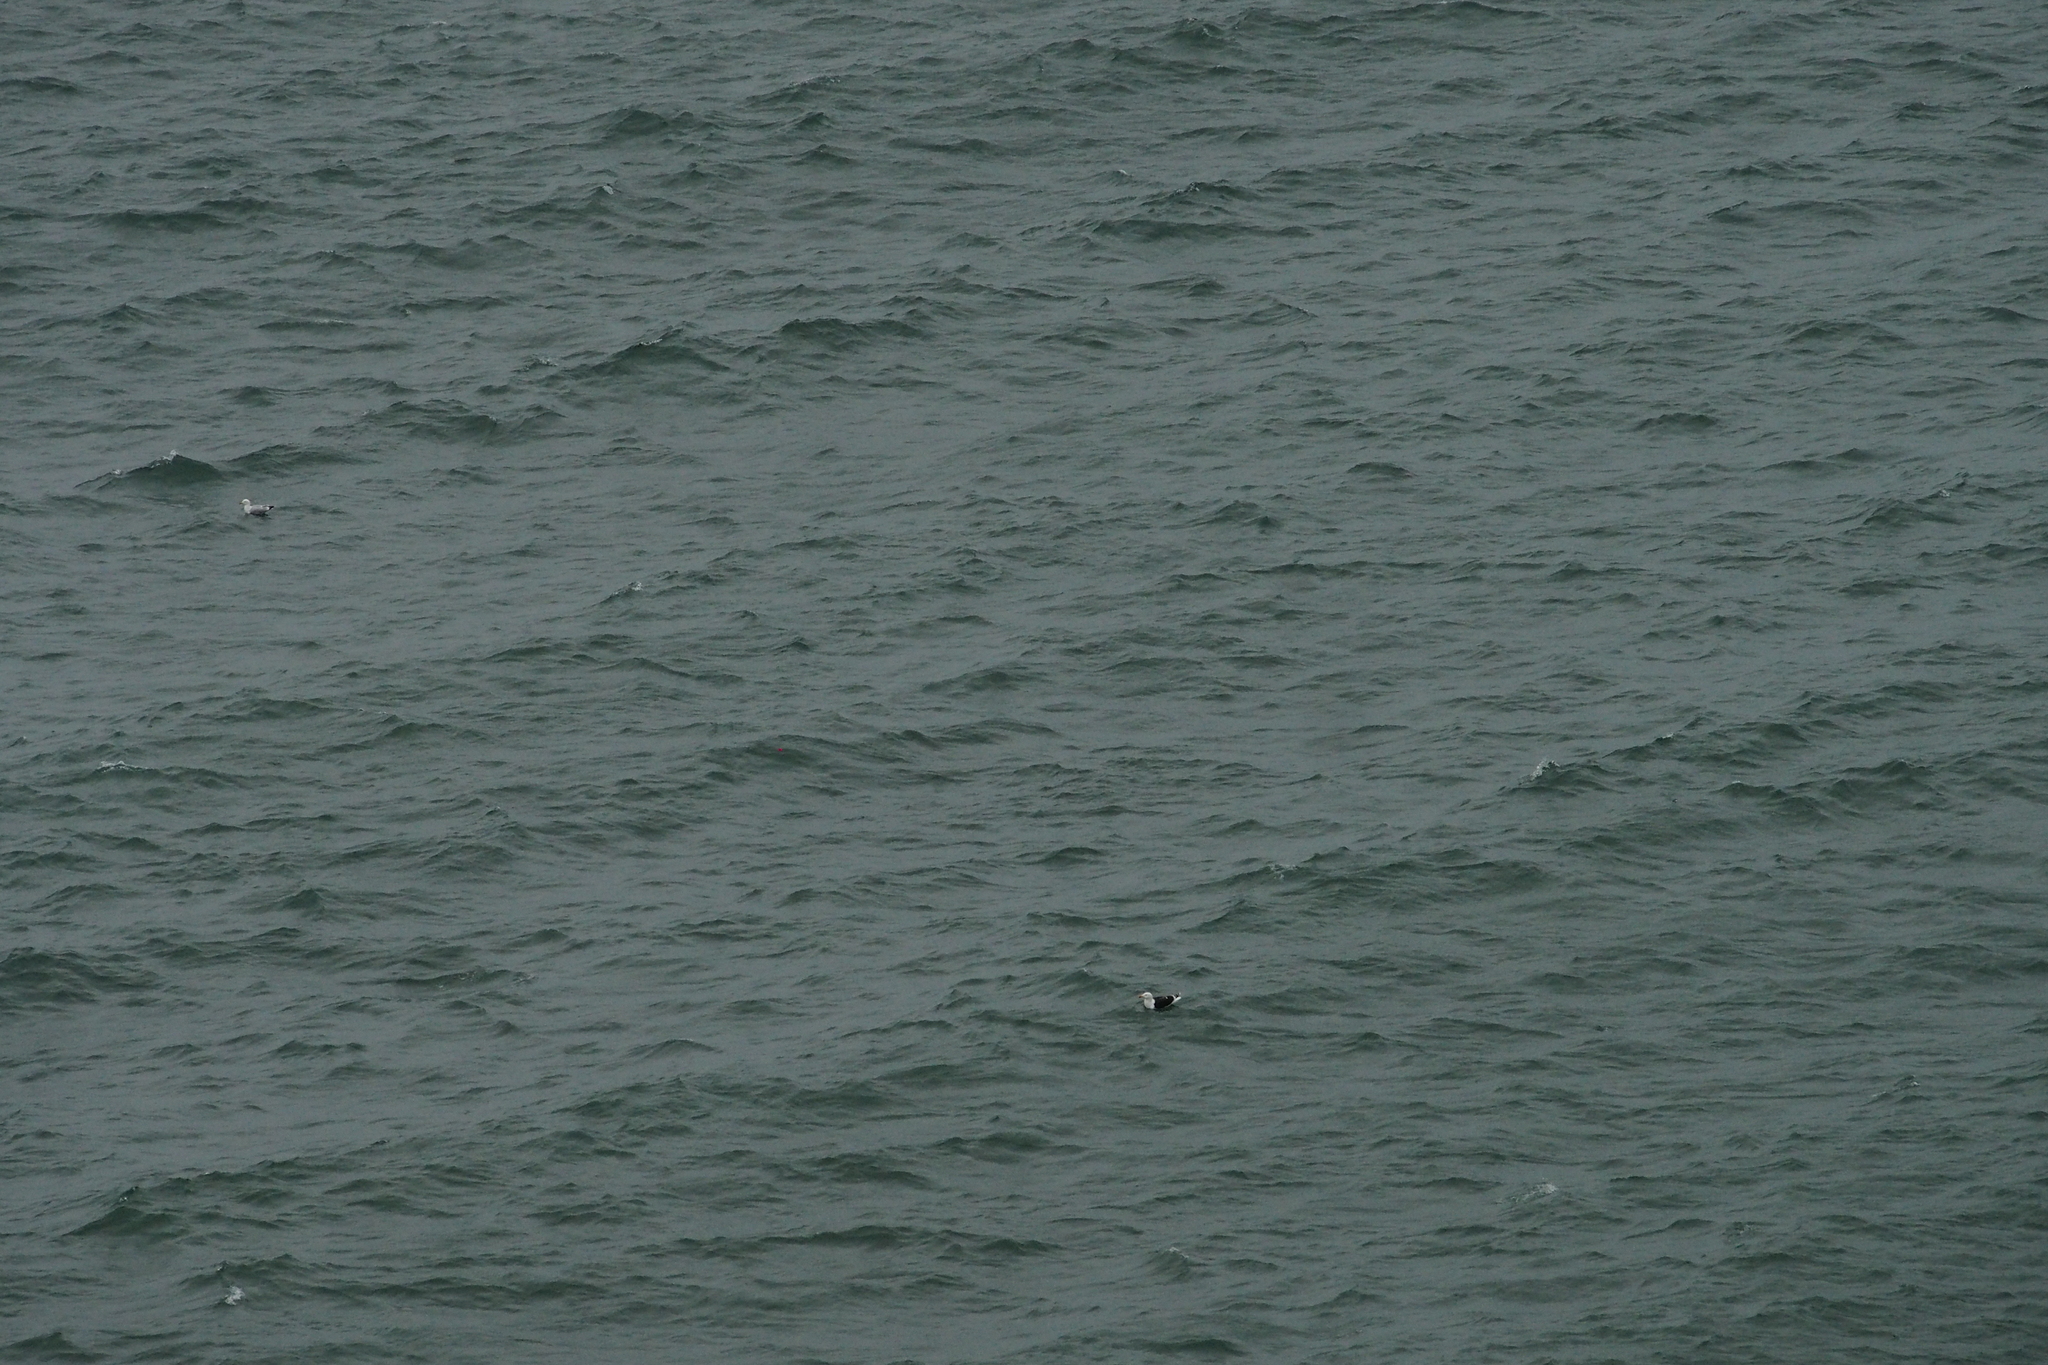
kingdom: Animalia
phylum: Chordata
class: Aves
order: Charadriiformes
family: Laridae
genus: Larus
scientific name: Larus marinus
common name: Great black-backed gull
